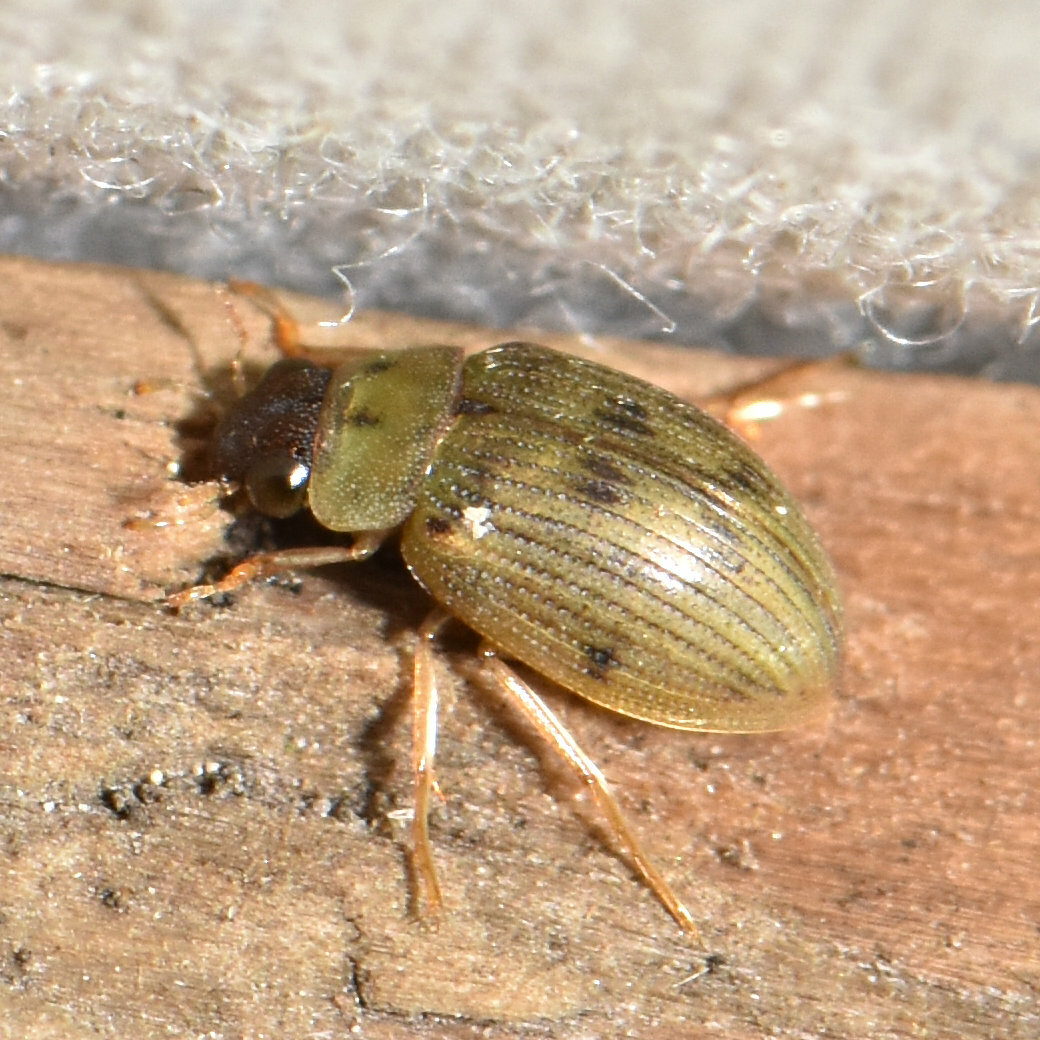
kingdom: Animalia
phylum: Arthropoda
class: Insecta
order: Coleoptera
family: Hydrophilidae
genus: Berosus
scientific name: Berosus peregrinus
